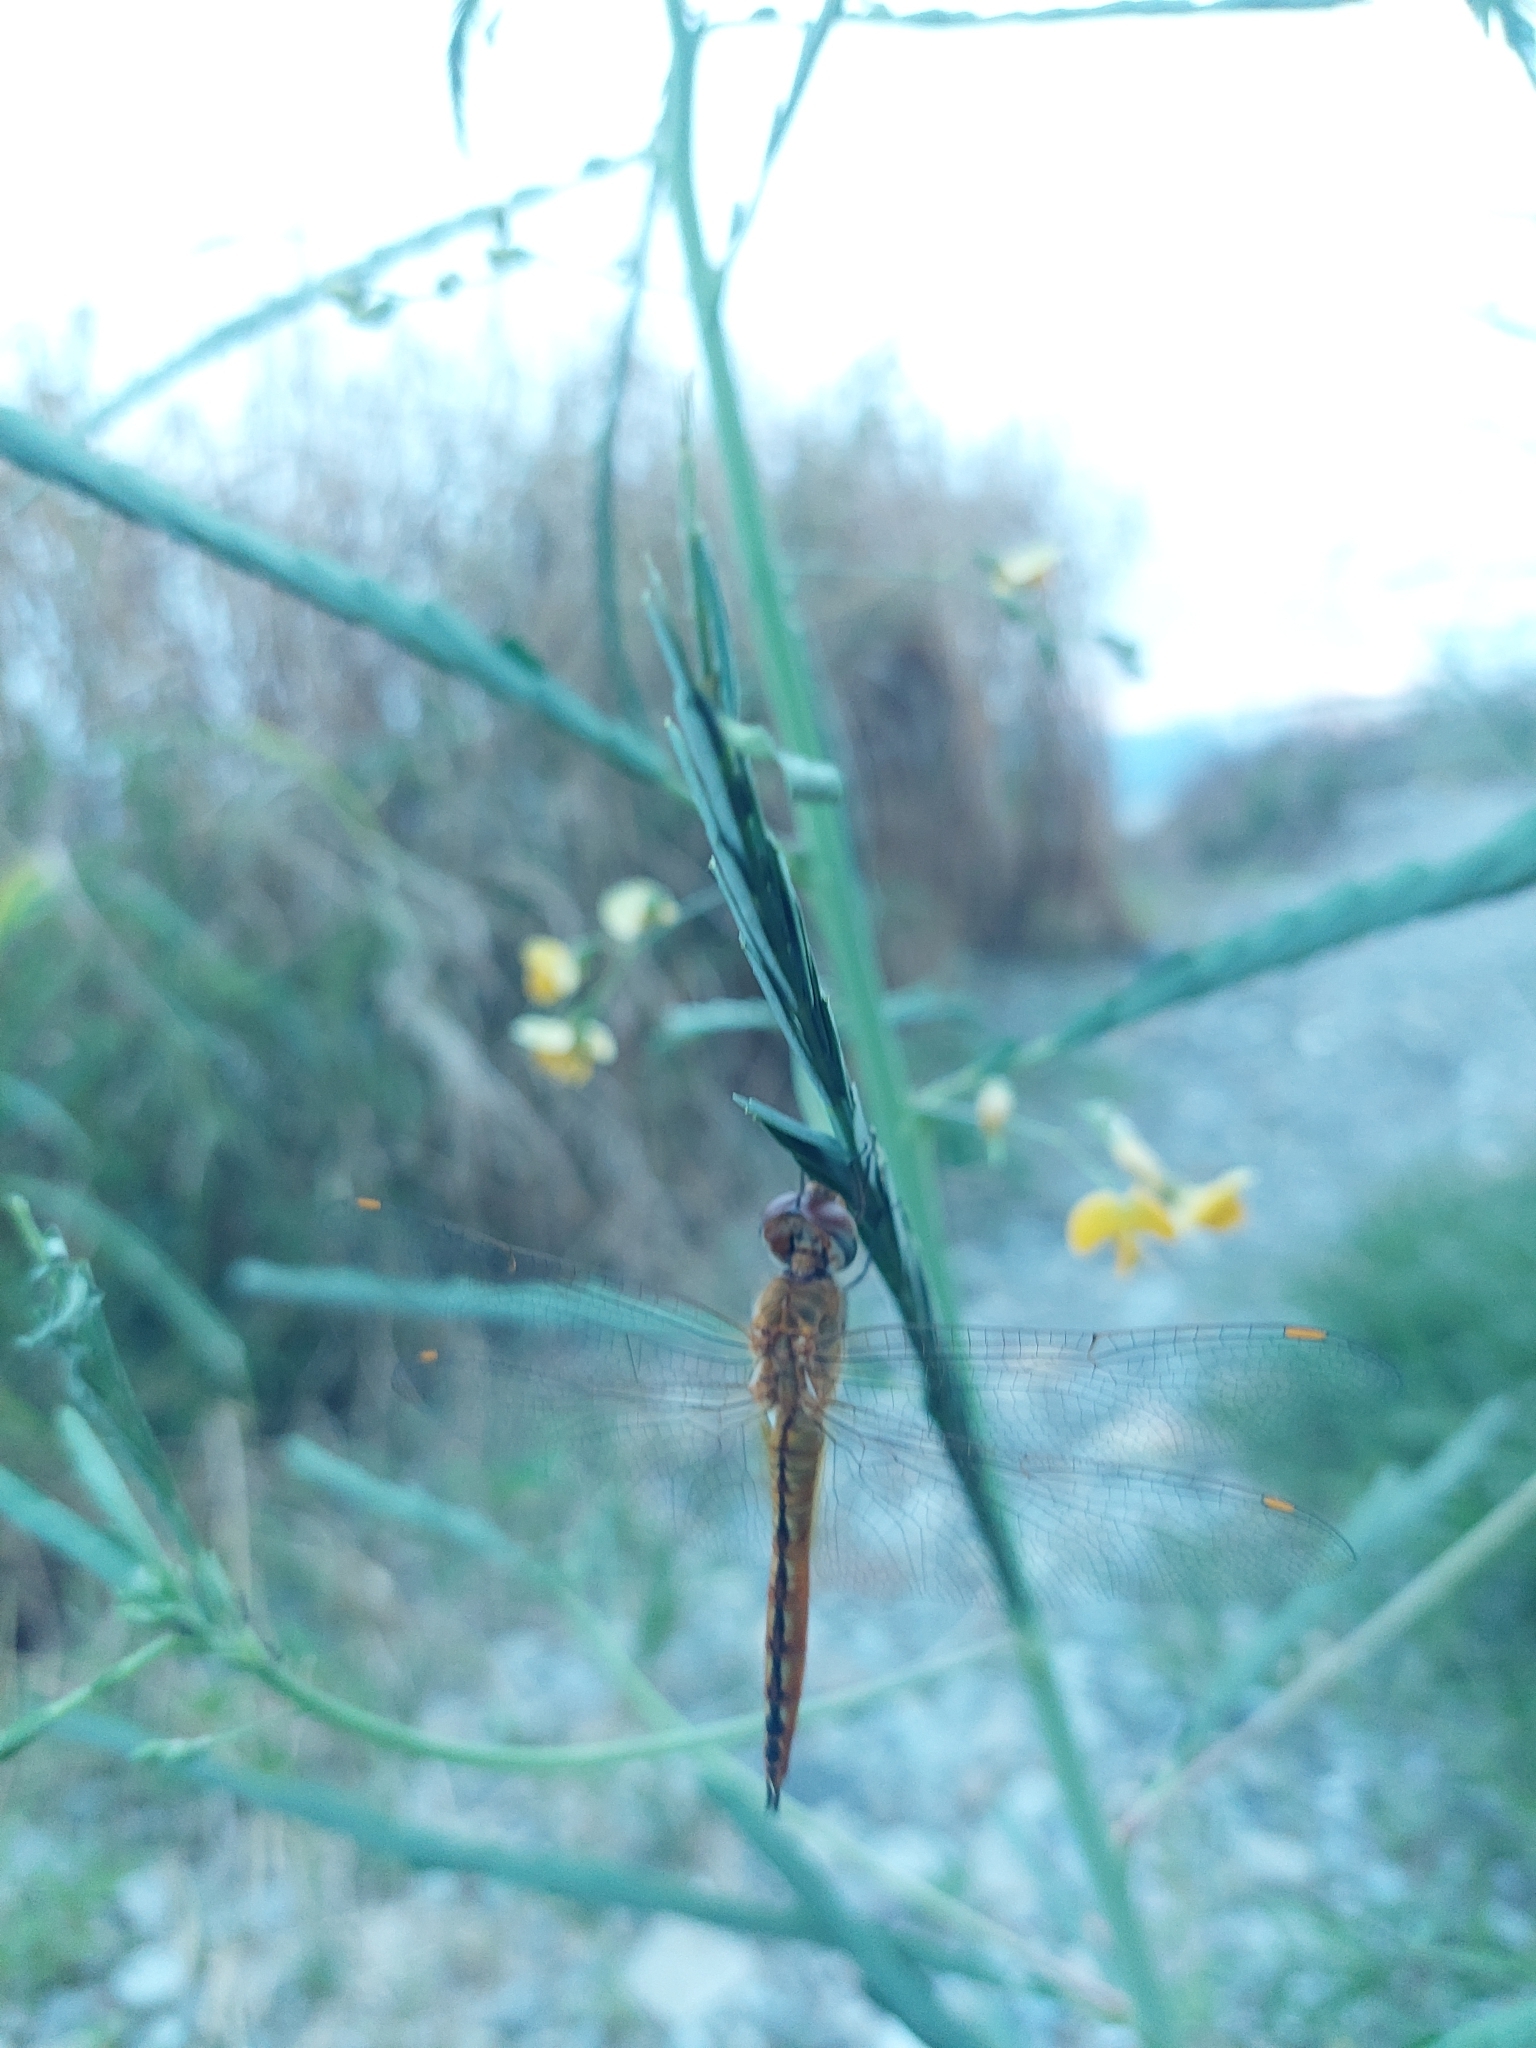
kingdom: Animalia
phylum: Arthropoda
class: Insecta
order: Odonata
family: Libellulidae
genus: Pantala
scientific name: Pantala flavescens
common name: Wandering glider
